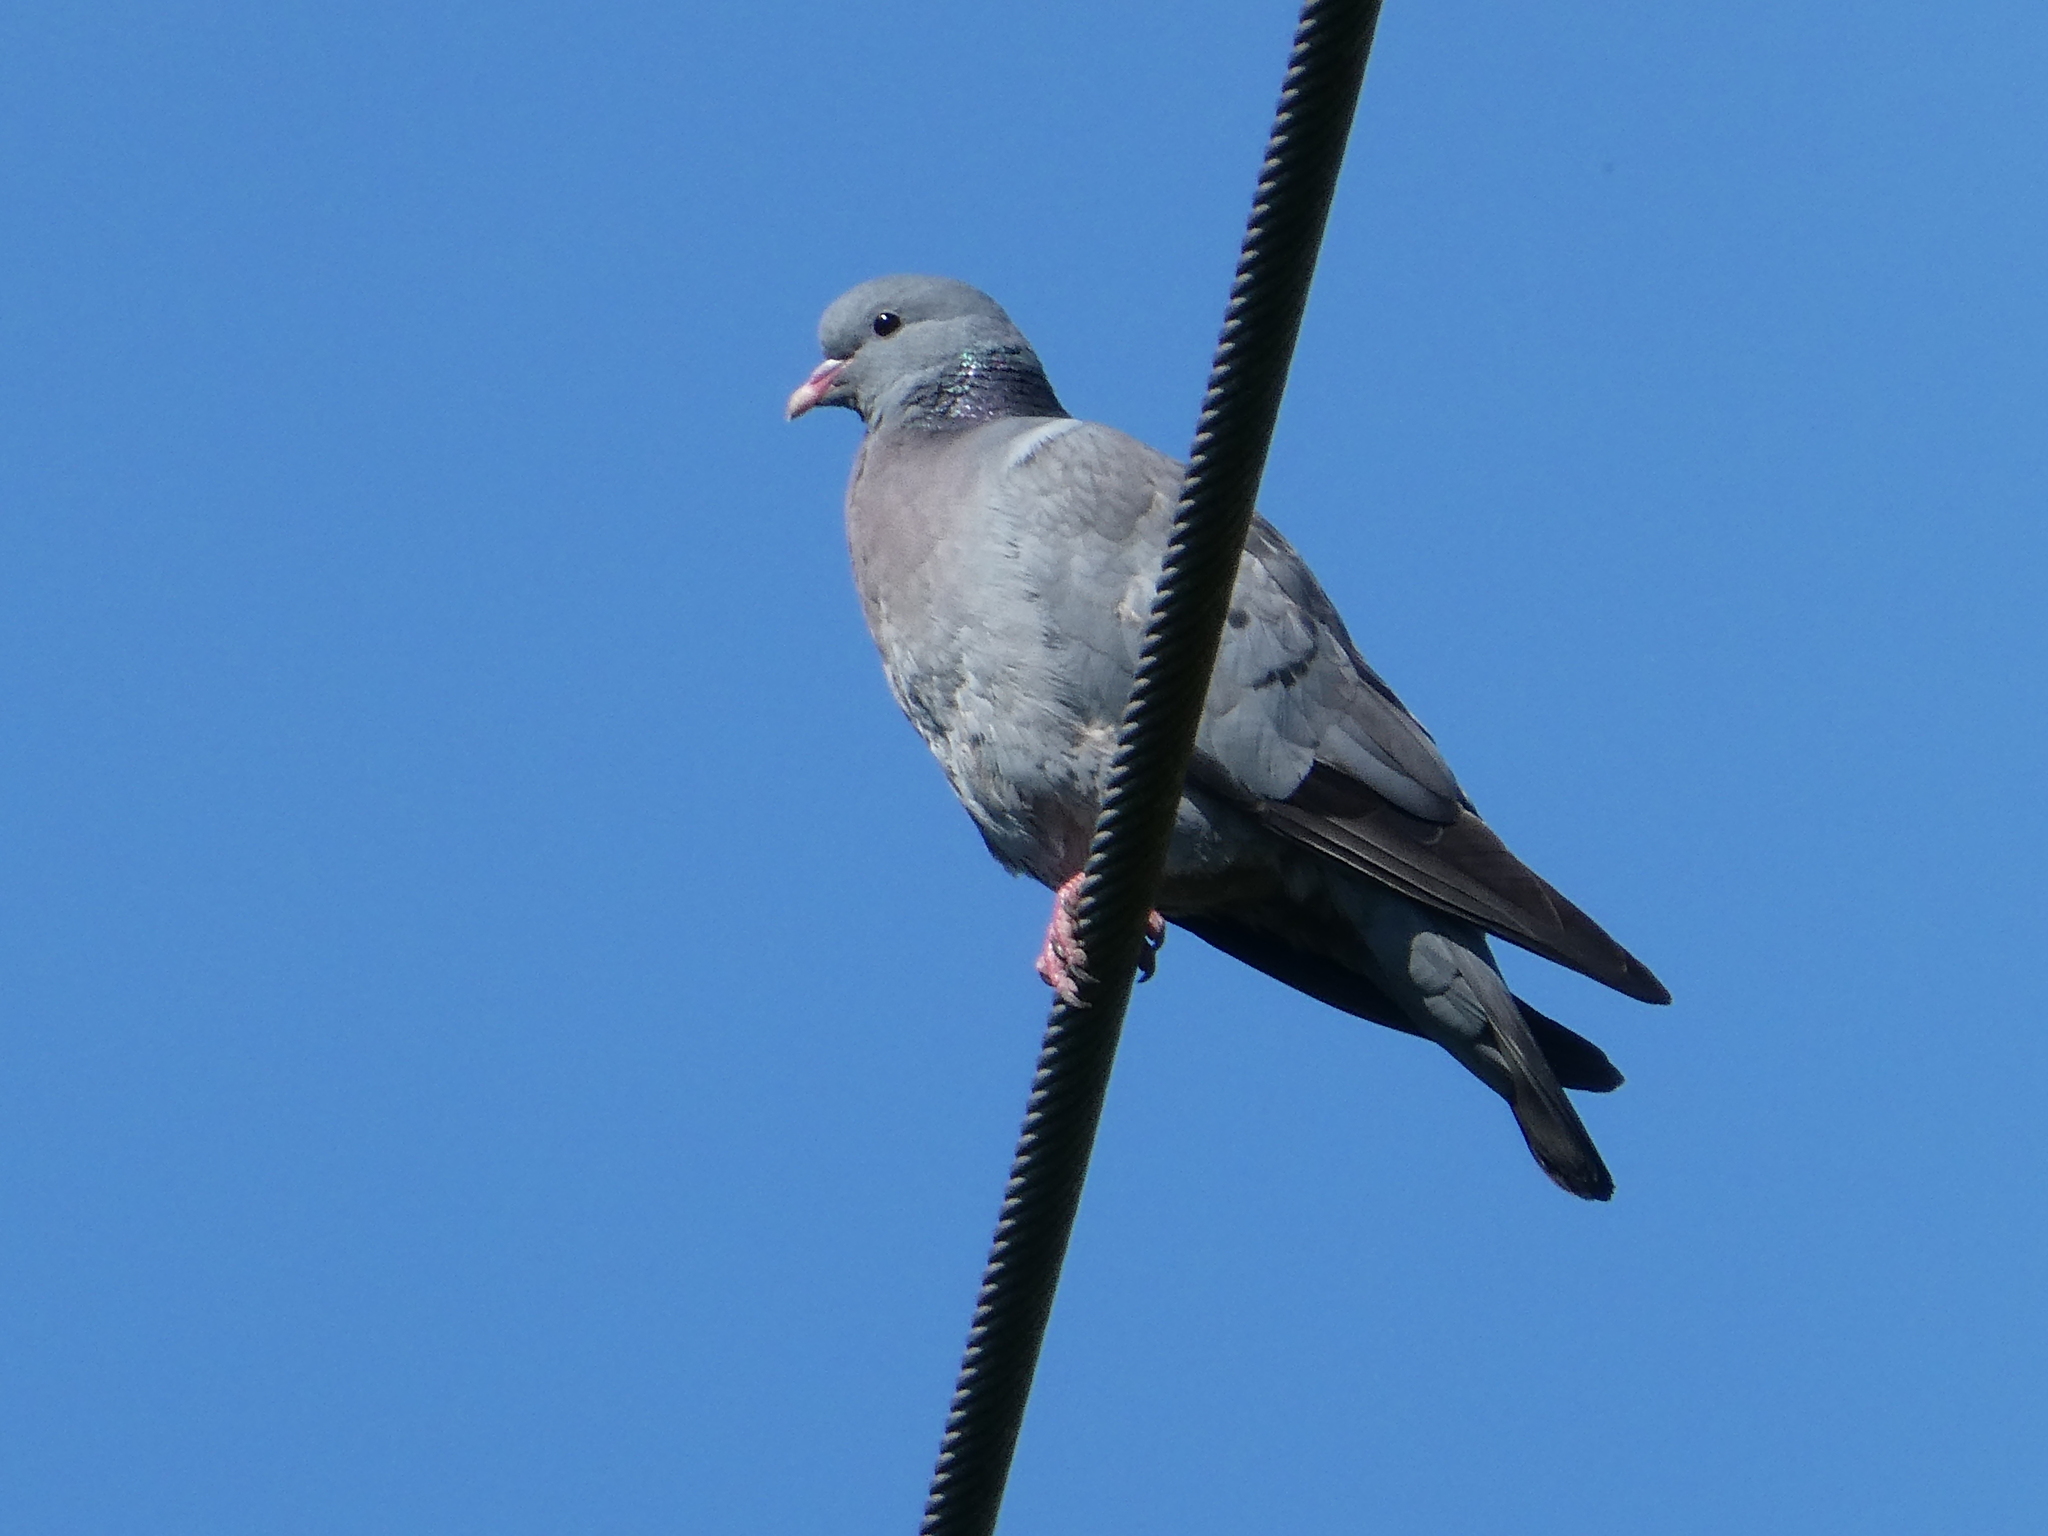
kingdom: Animalia
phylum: Chordata
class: Aves
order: Columbiformes
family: Columbidae
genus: Columba
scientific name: Columba oenas
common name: Stock dove
